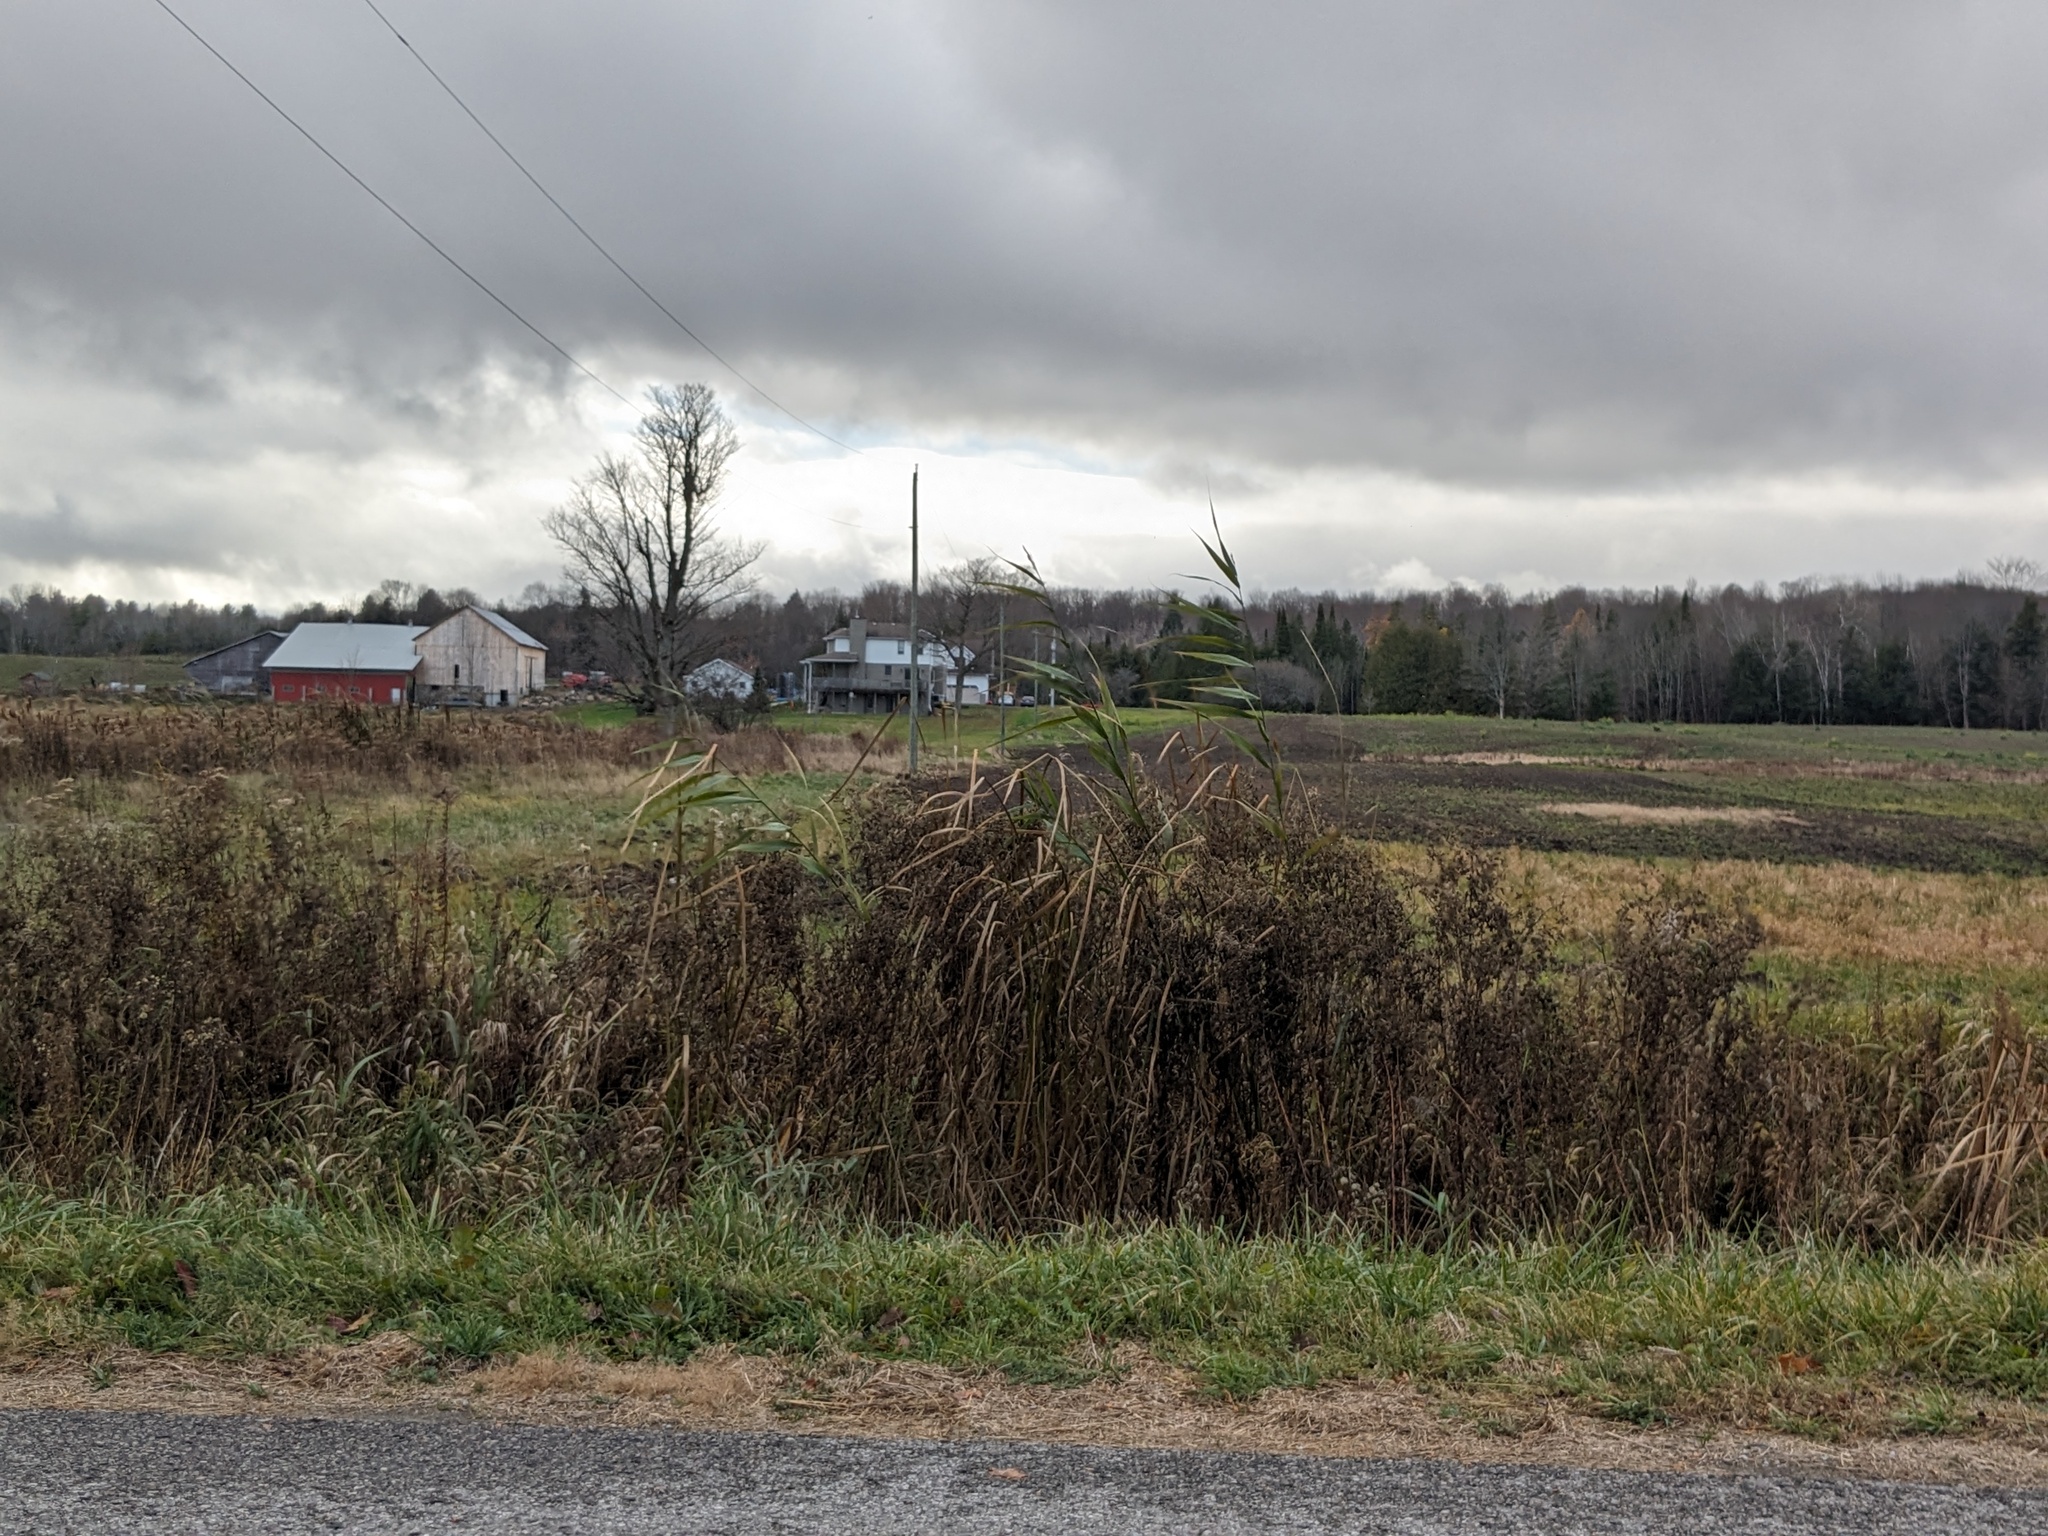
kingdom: Plantae
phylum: Tracheophyta
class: Liliopsida
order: Poales
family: Poaceae
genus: Phragmites
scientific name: Phragmites australis
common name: Common reed
